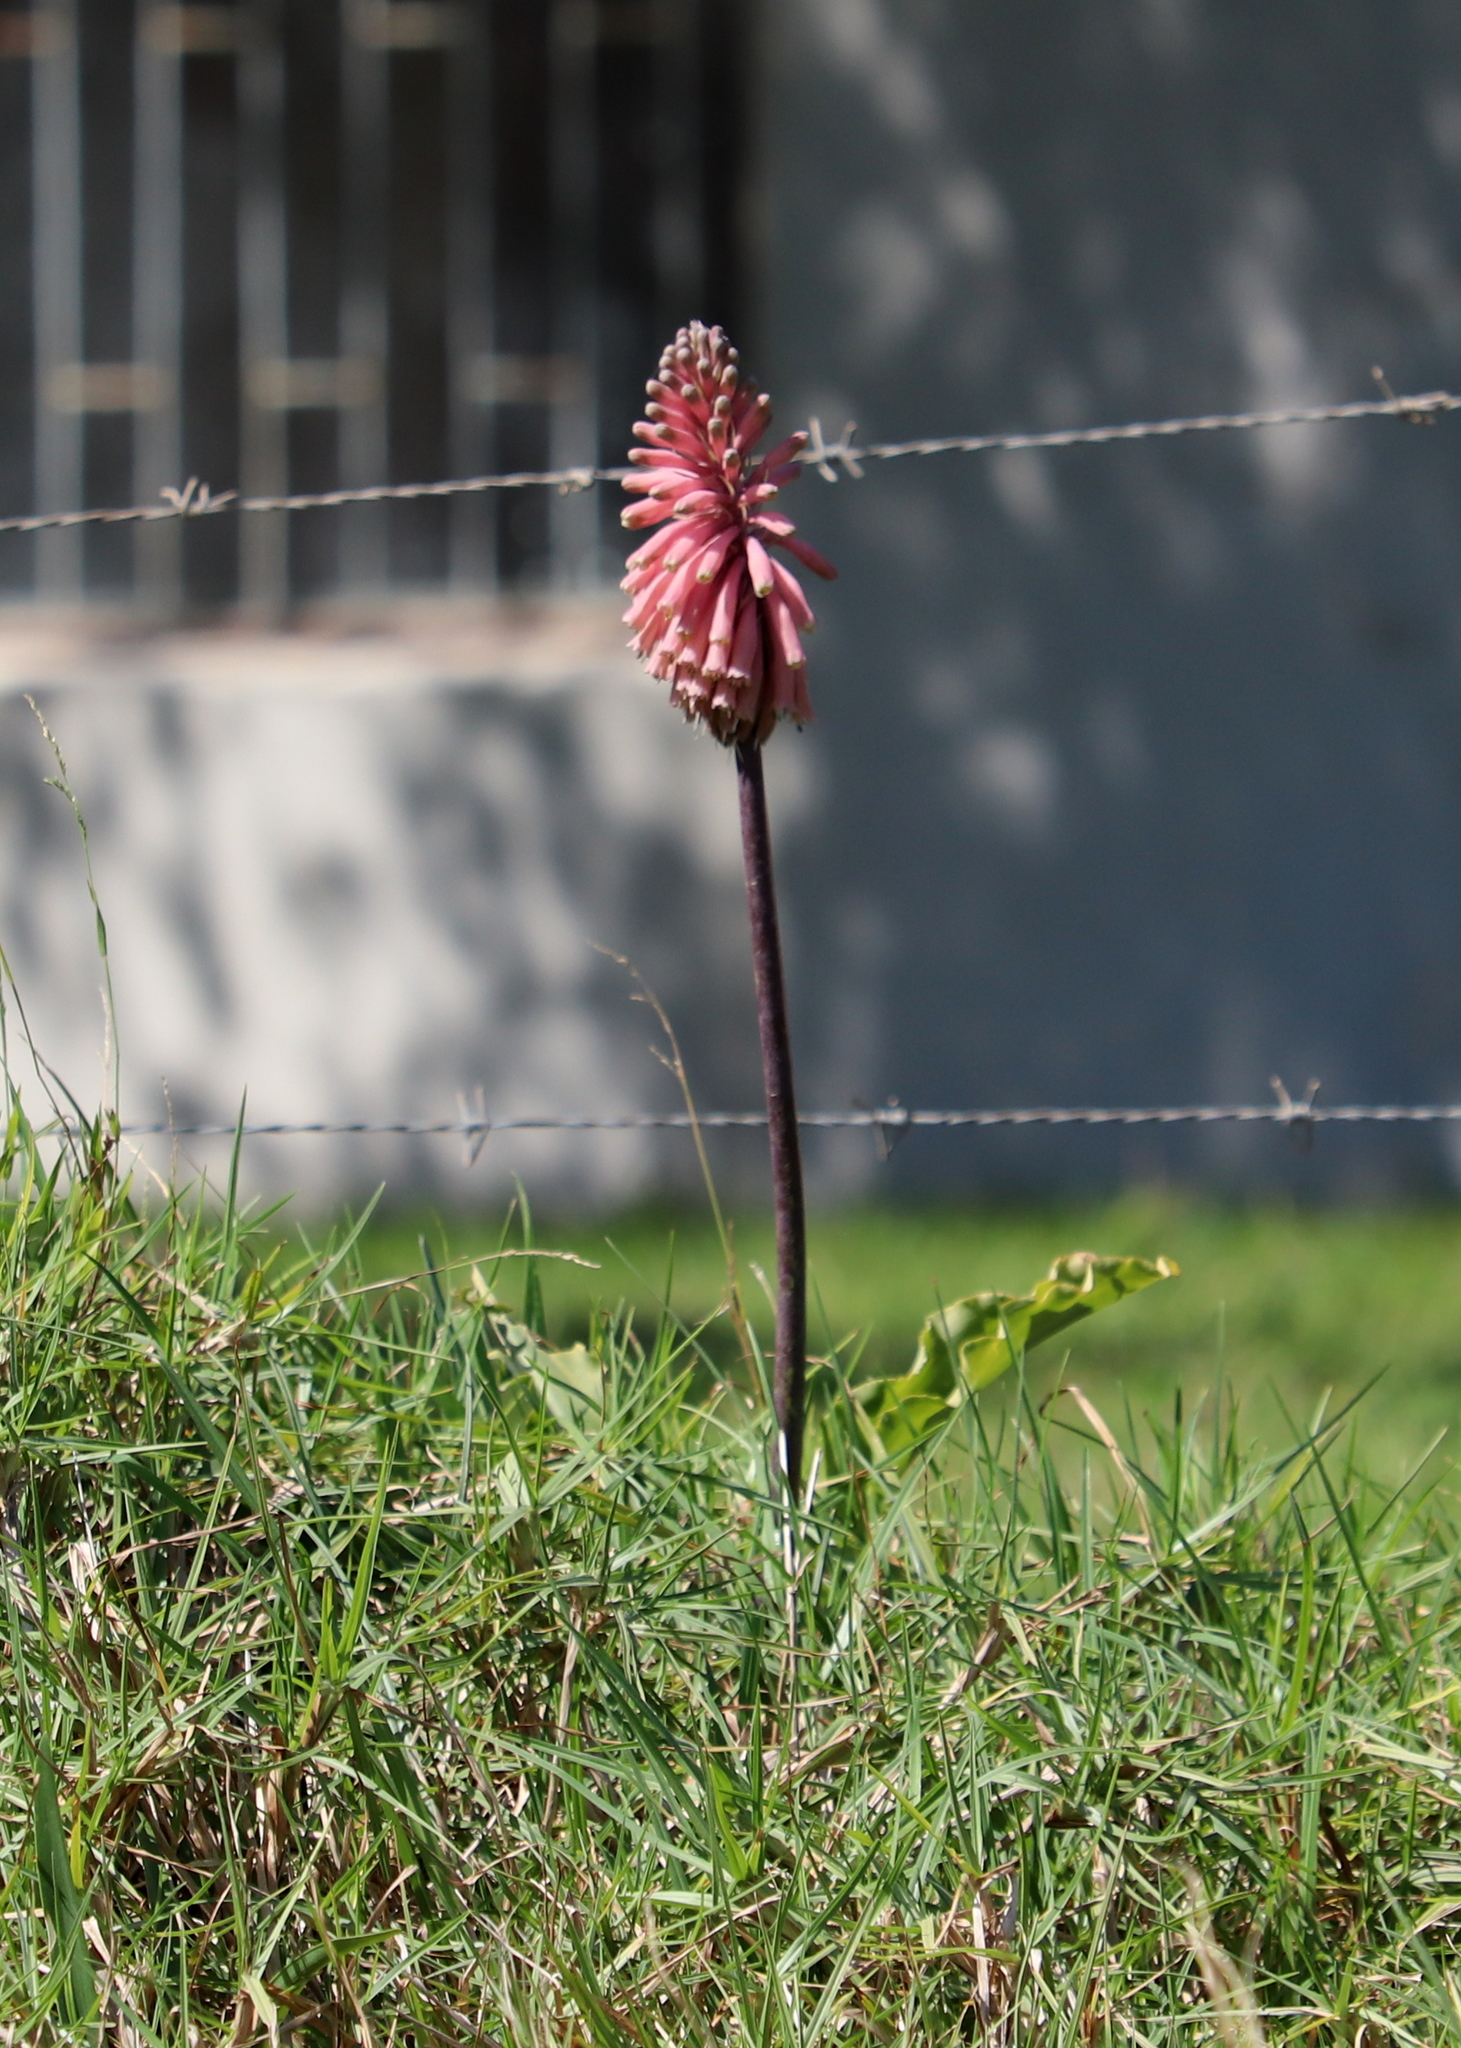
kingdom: Plantae
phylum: Tracheophyta
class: Liliopsida
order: Asparagales
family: Asparagaceae
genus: Veltheimia
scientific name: Veltheimia bracteata
